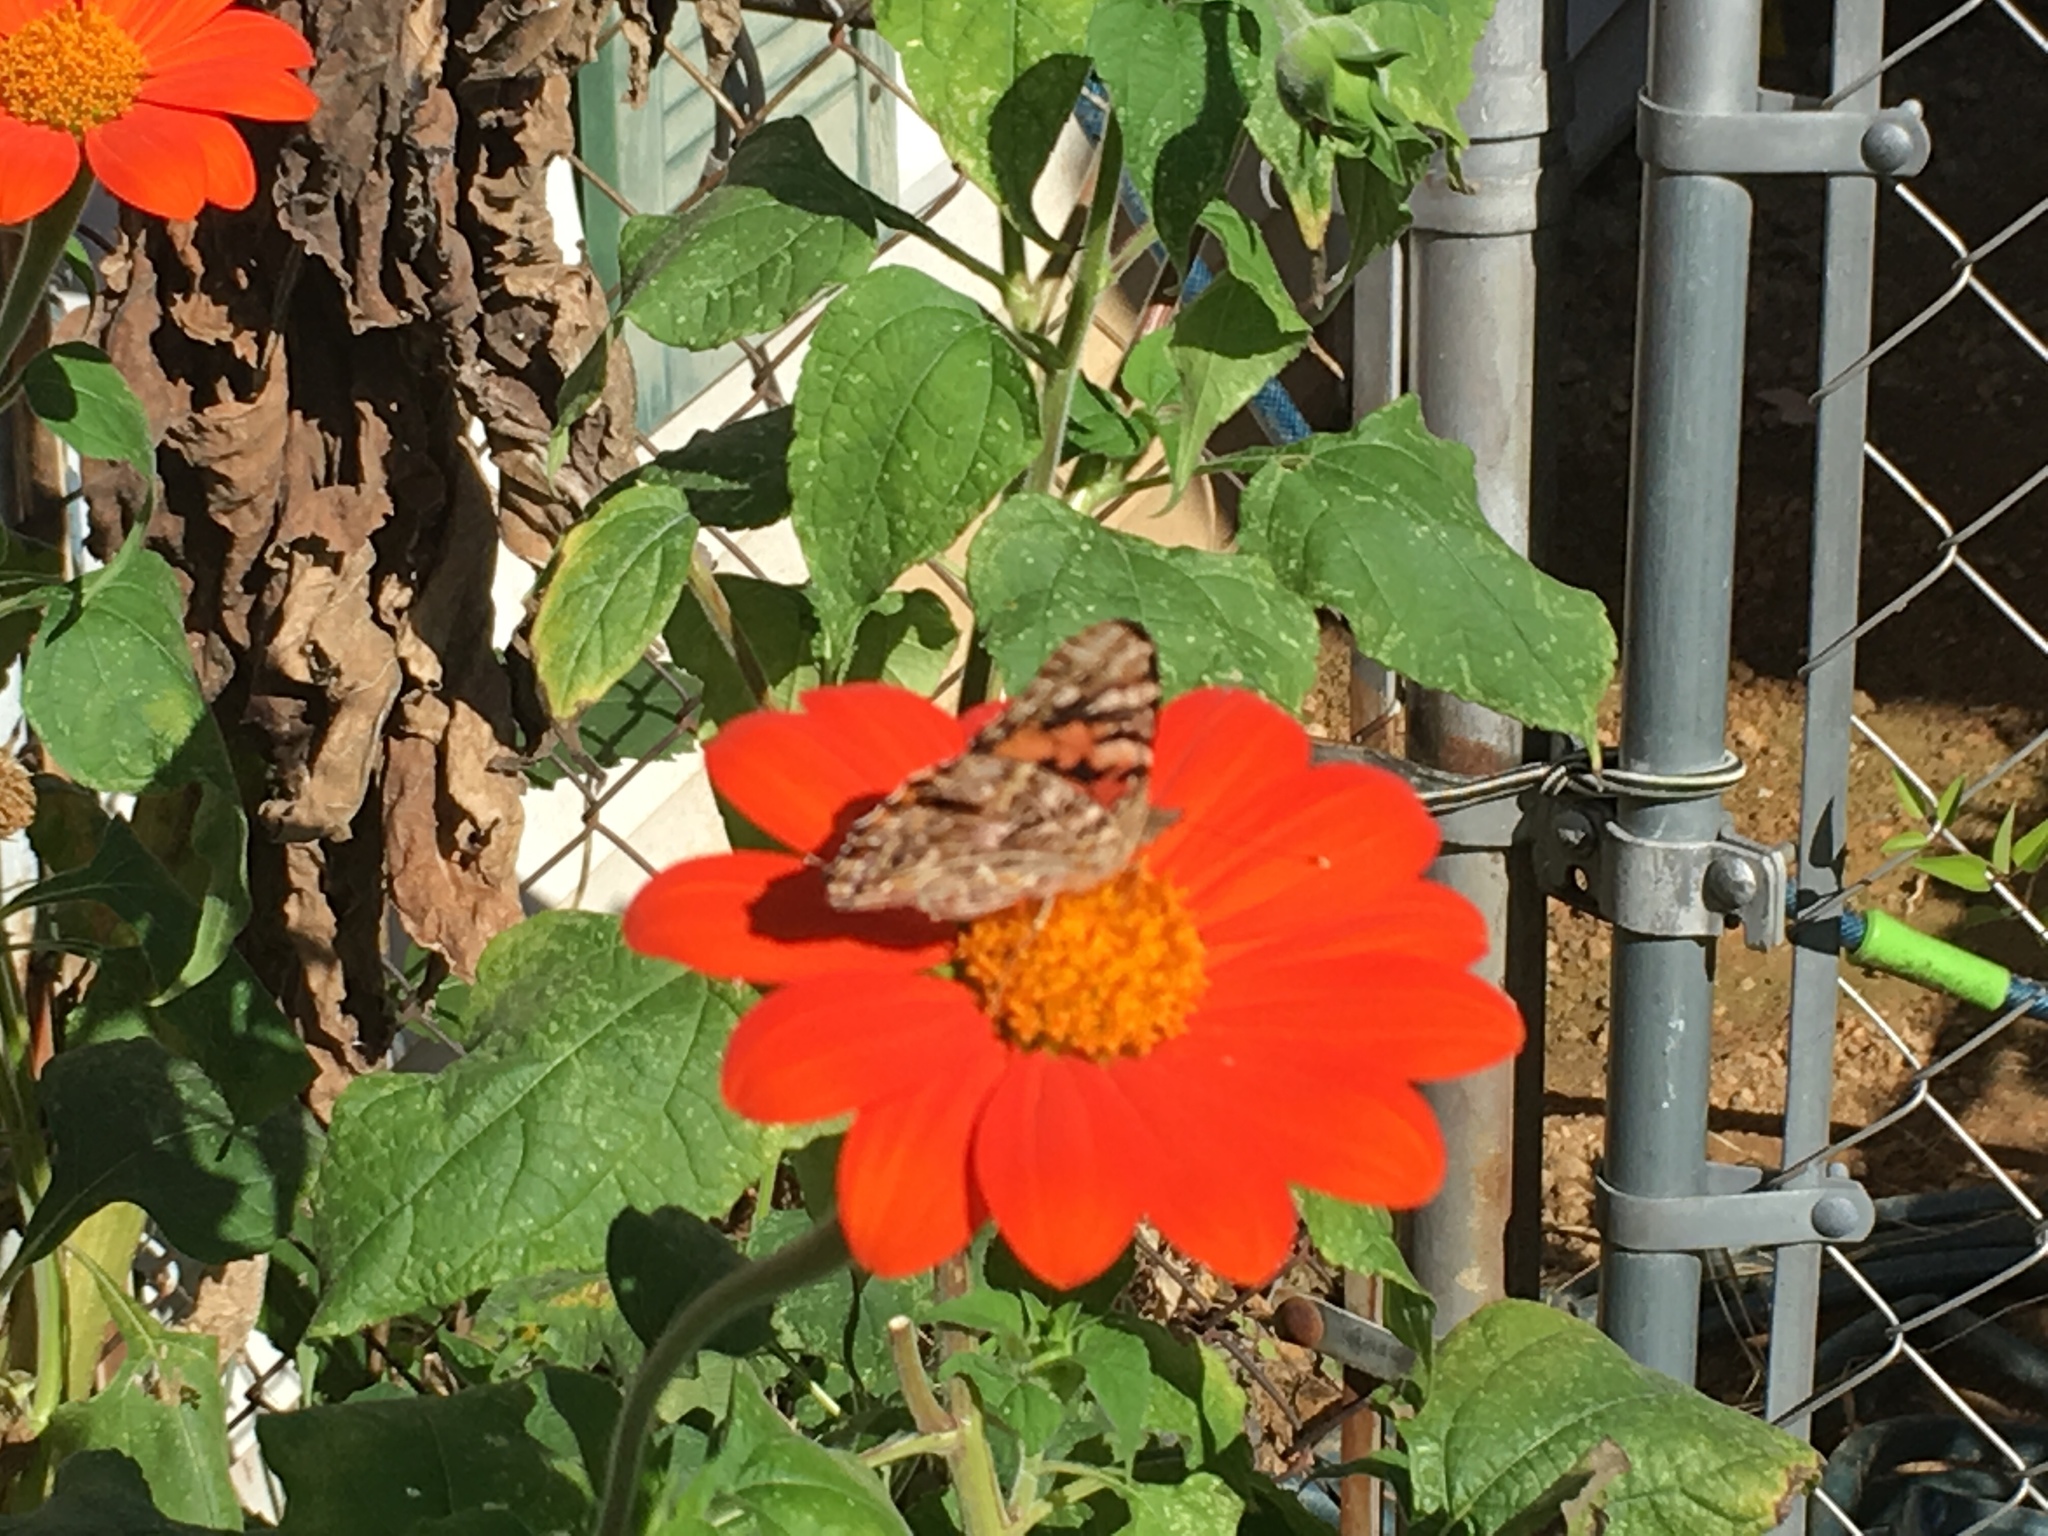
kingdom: Animalia
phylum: Arthropoda
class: Insecta
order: Lepidoptera
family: Nymphalidae
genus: Vanessa
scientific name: Vanessa cardui
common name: Painted lady
